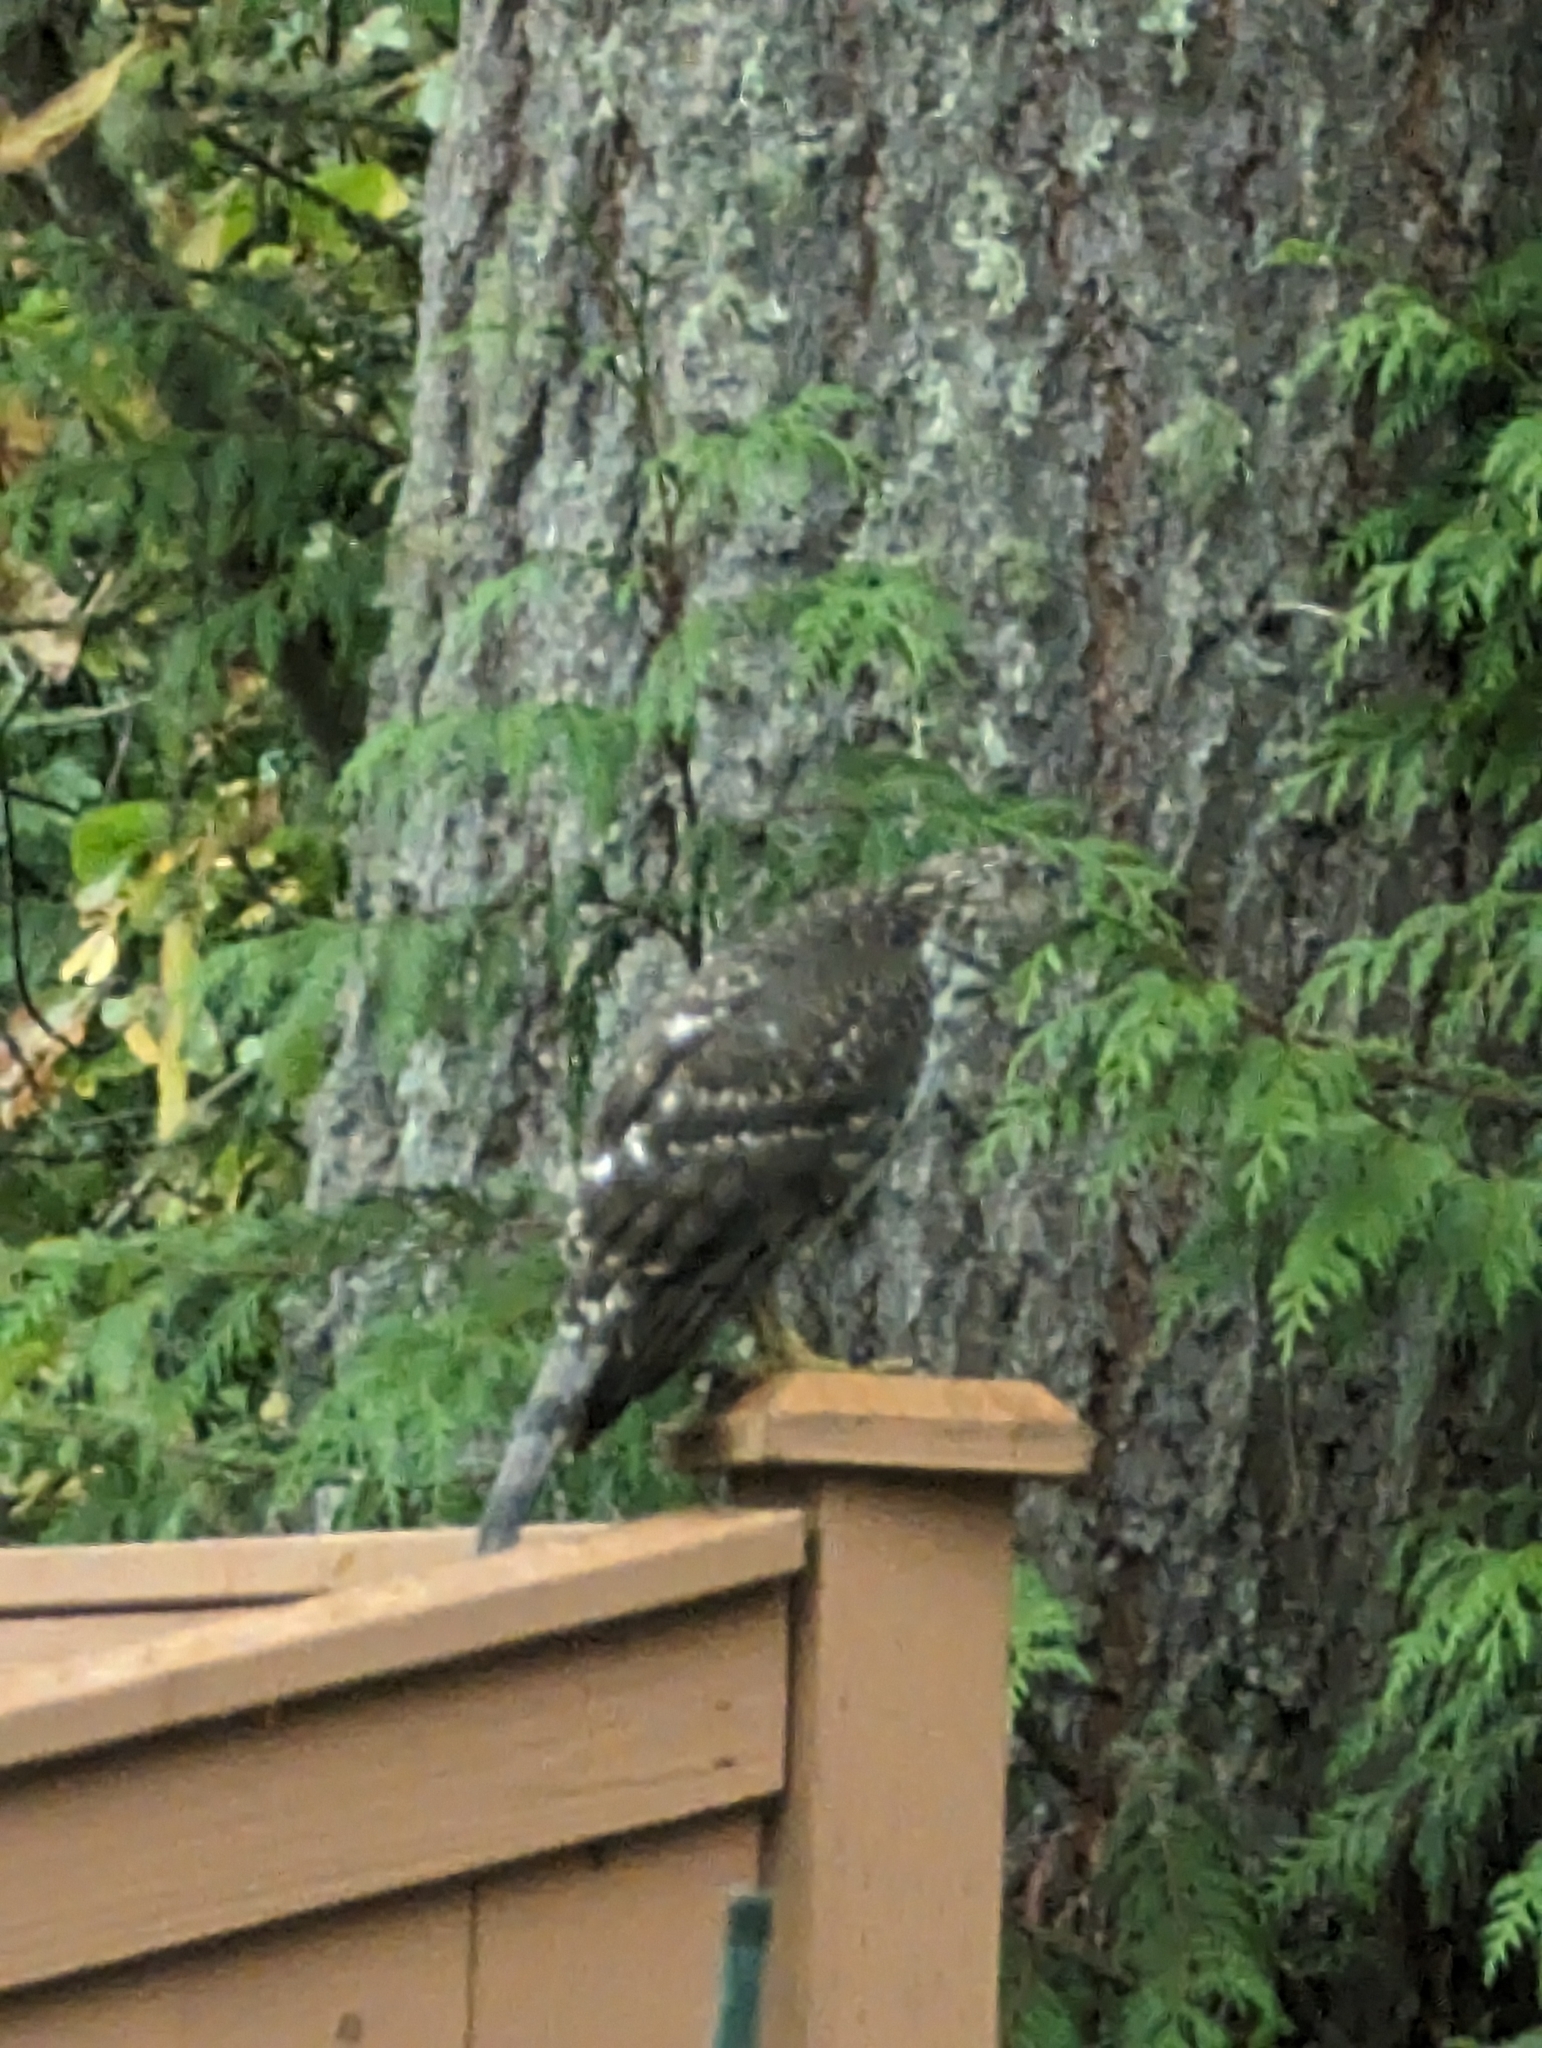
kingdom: Animalia
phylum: Chordata
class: Aves
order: Accipitriformes
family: Accipitridae
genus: Accipiter
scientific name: Accipiter cooperii
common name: Cooper's hawk
